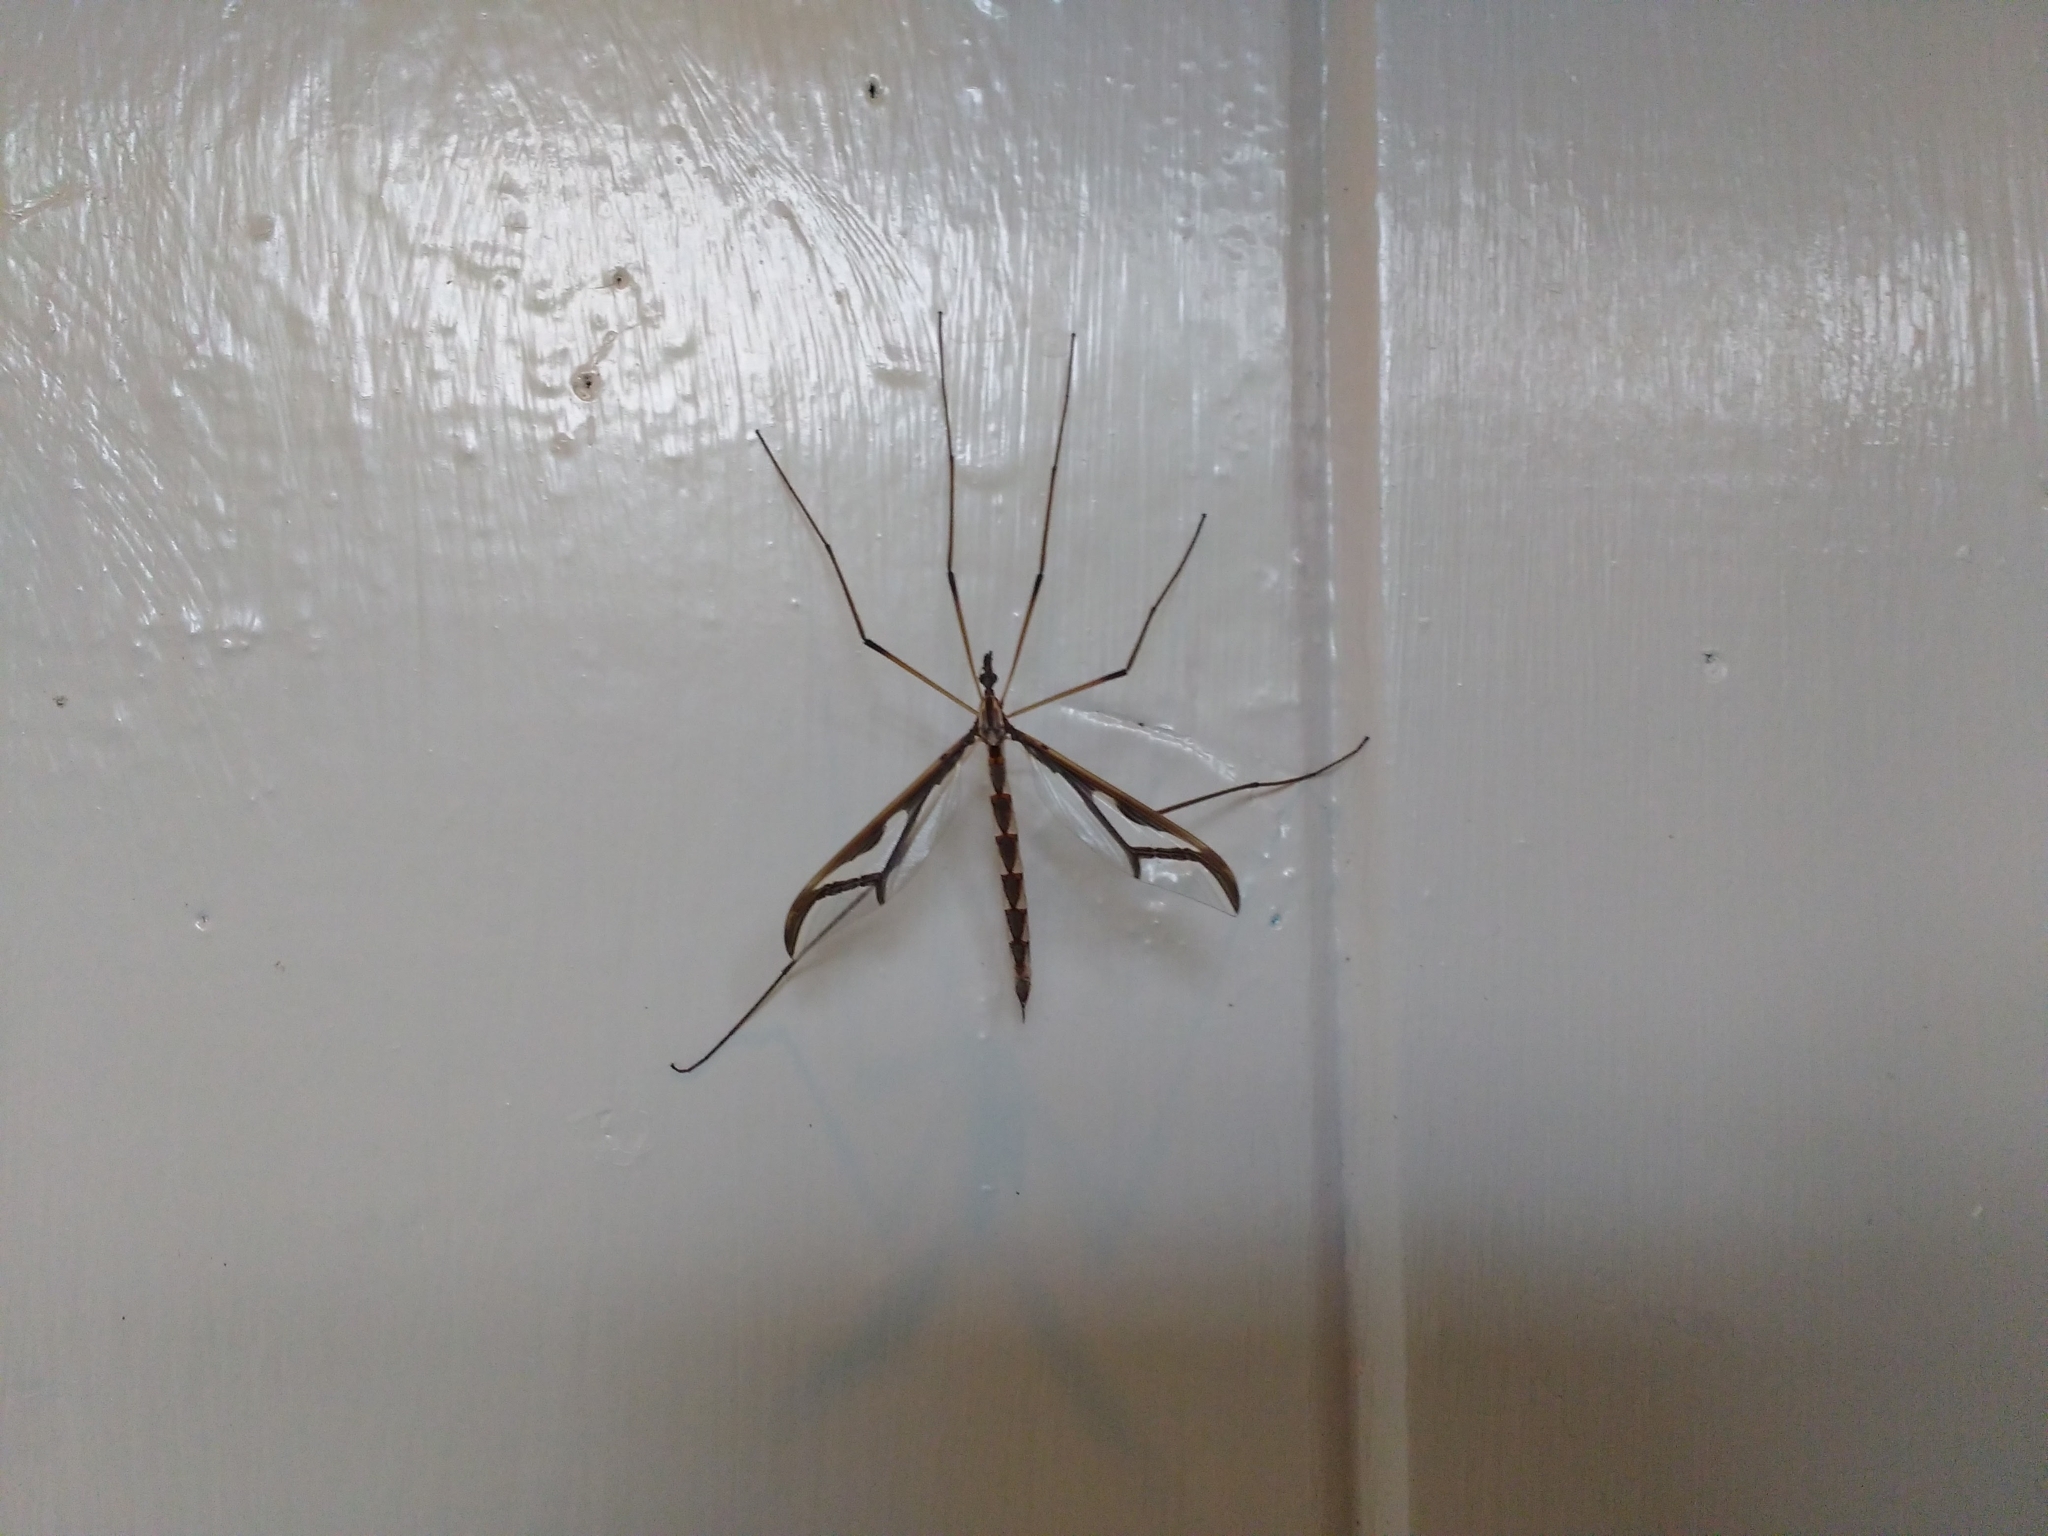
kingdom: Animalia
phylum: Arthropoda
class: Insecta
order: Diptera
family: Pediciidae
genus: Pedicia
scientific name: Pedicia albivitta
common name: Giant eastern crane fly
